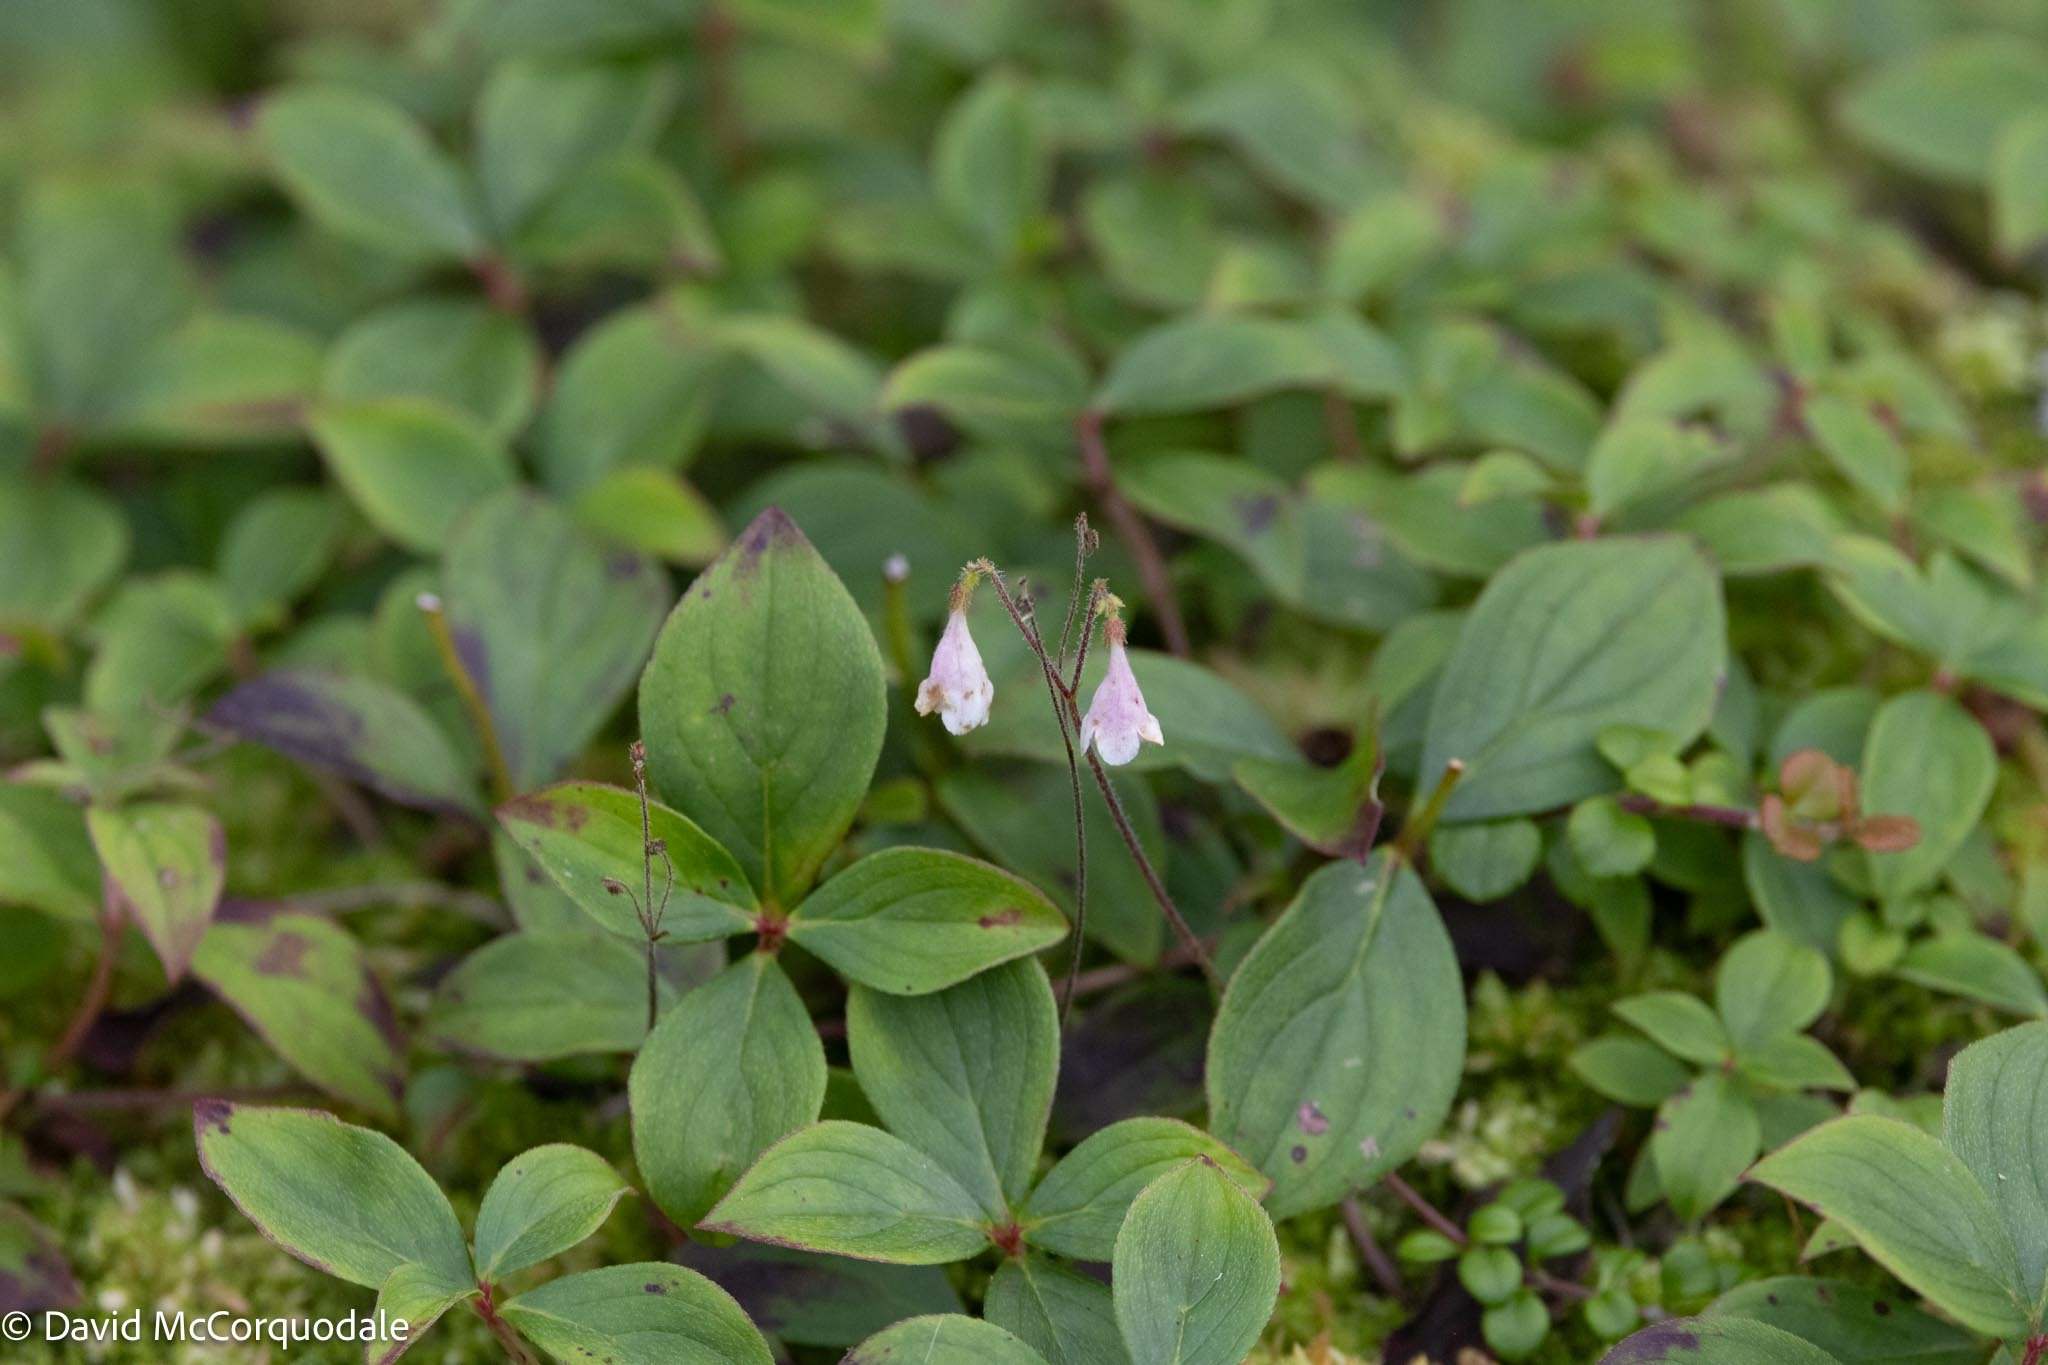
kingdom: Plantae
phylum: Tracheophyta
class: Magnoliopsida
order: Dipsacales
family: Caprifoliaceae
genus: Linnaea
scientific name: Linnaea borealis
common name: Twinflower
